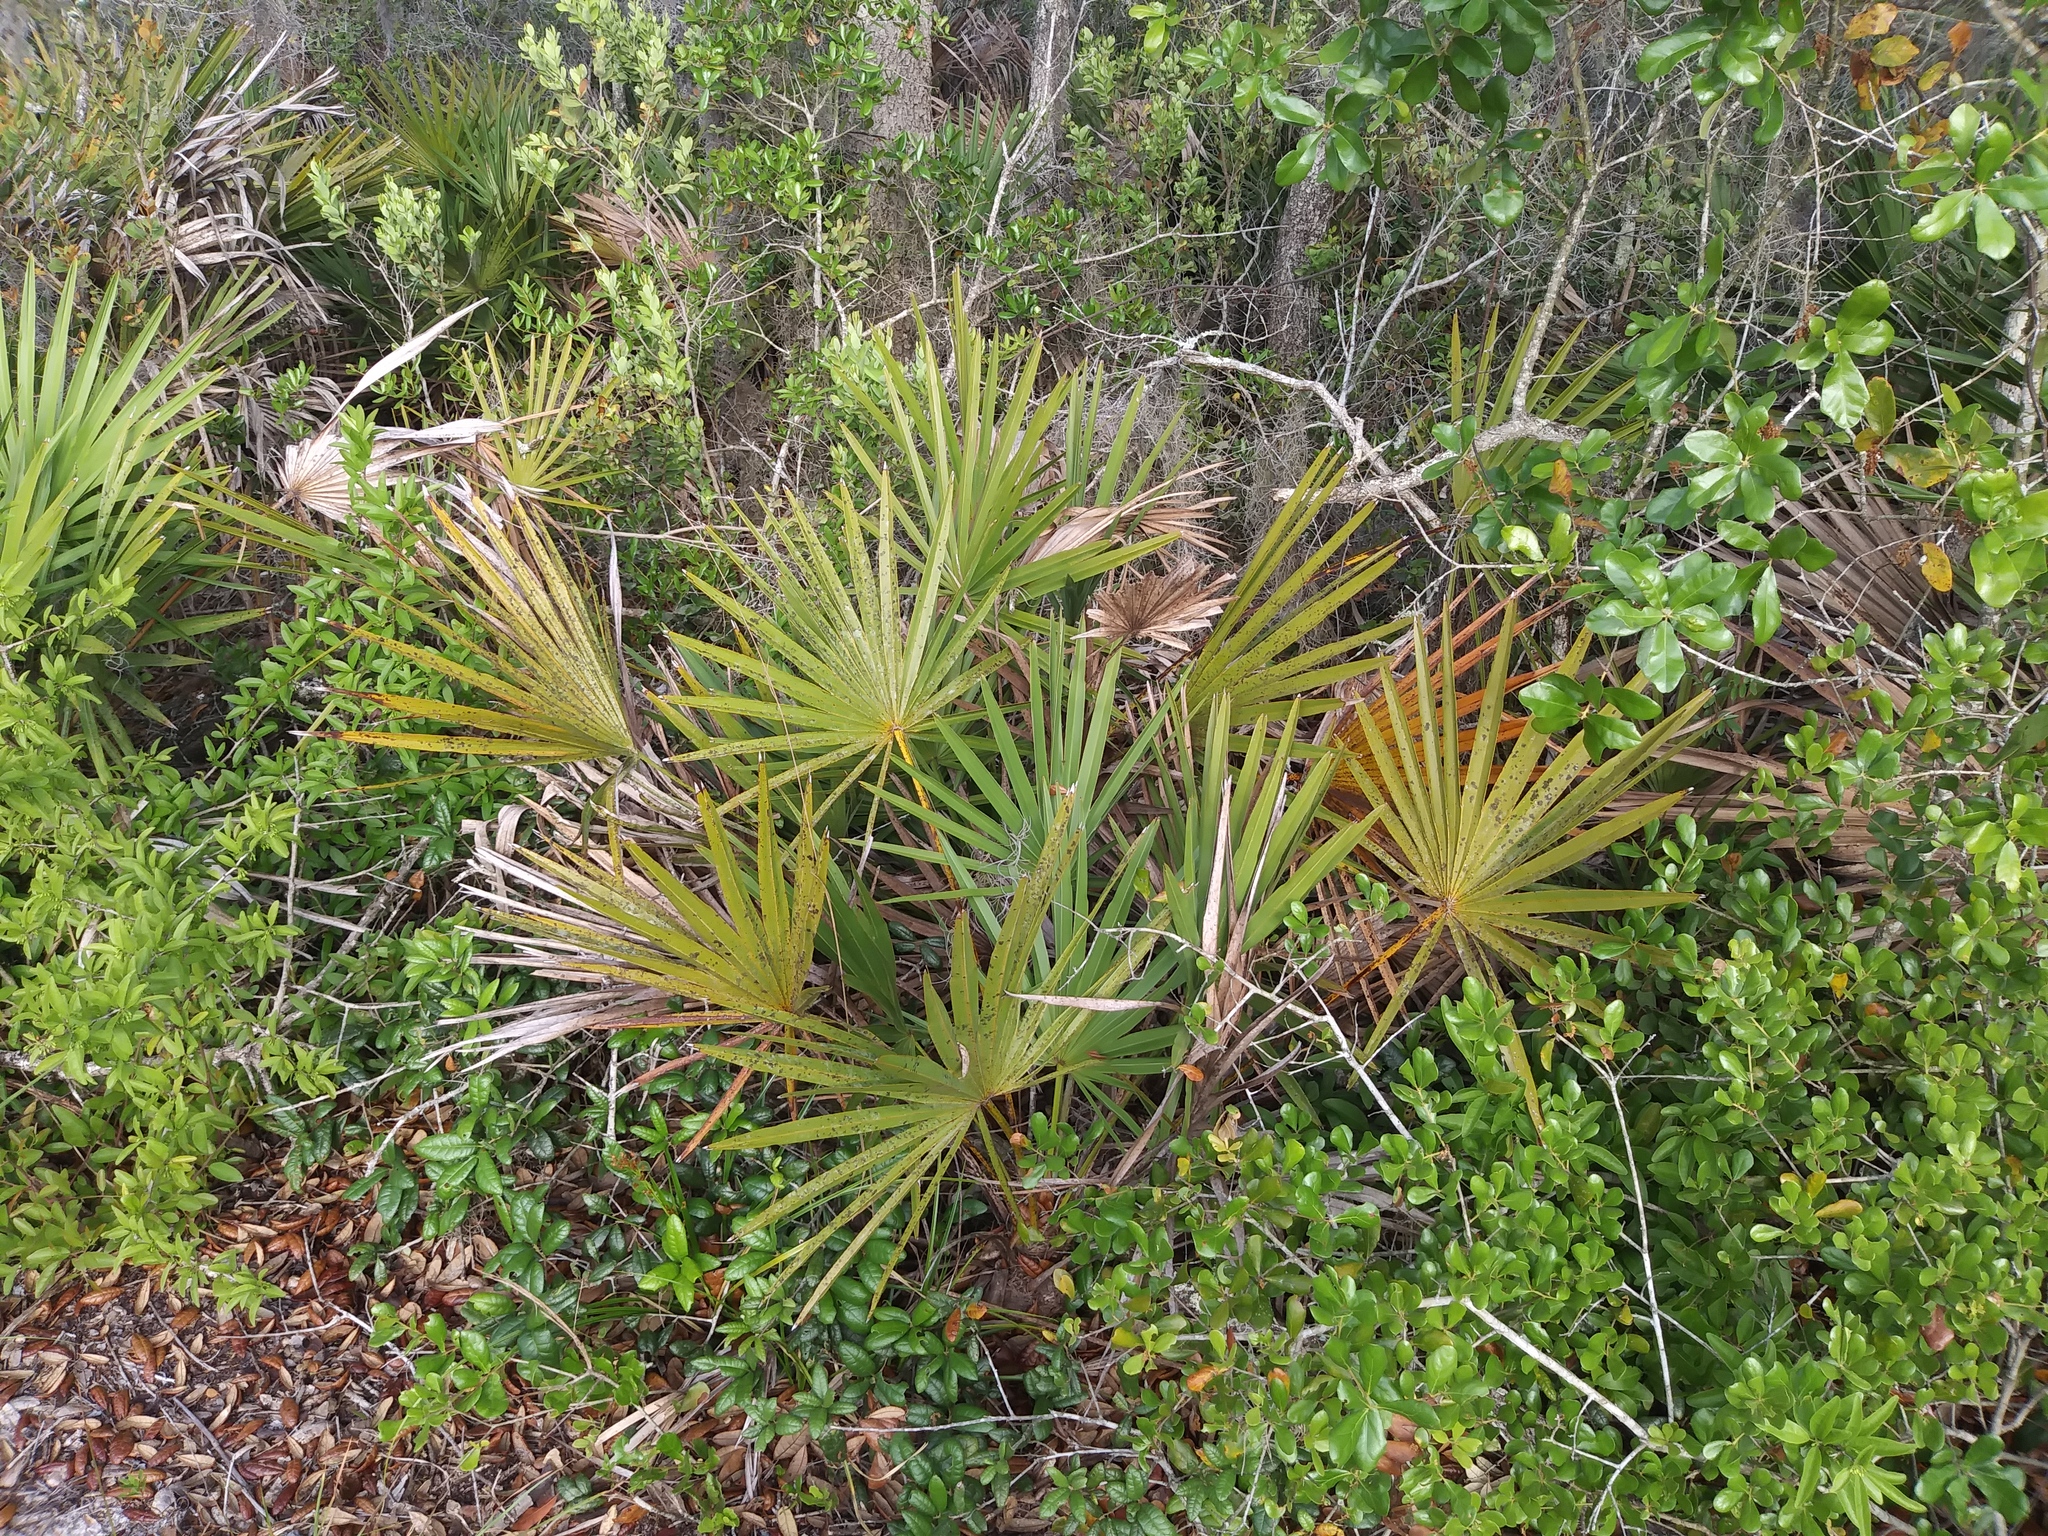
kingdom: Plantae
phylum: Tracheophyta
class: Liliopsida
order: Arecales
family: Arecaceae
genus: Serenoa
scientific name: Serenoa repens
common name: Saw-palmetto
